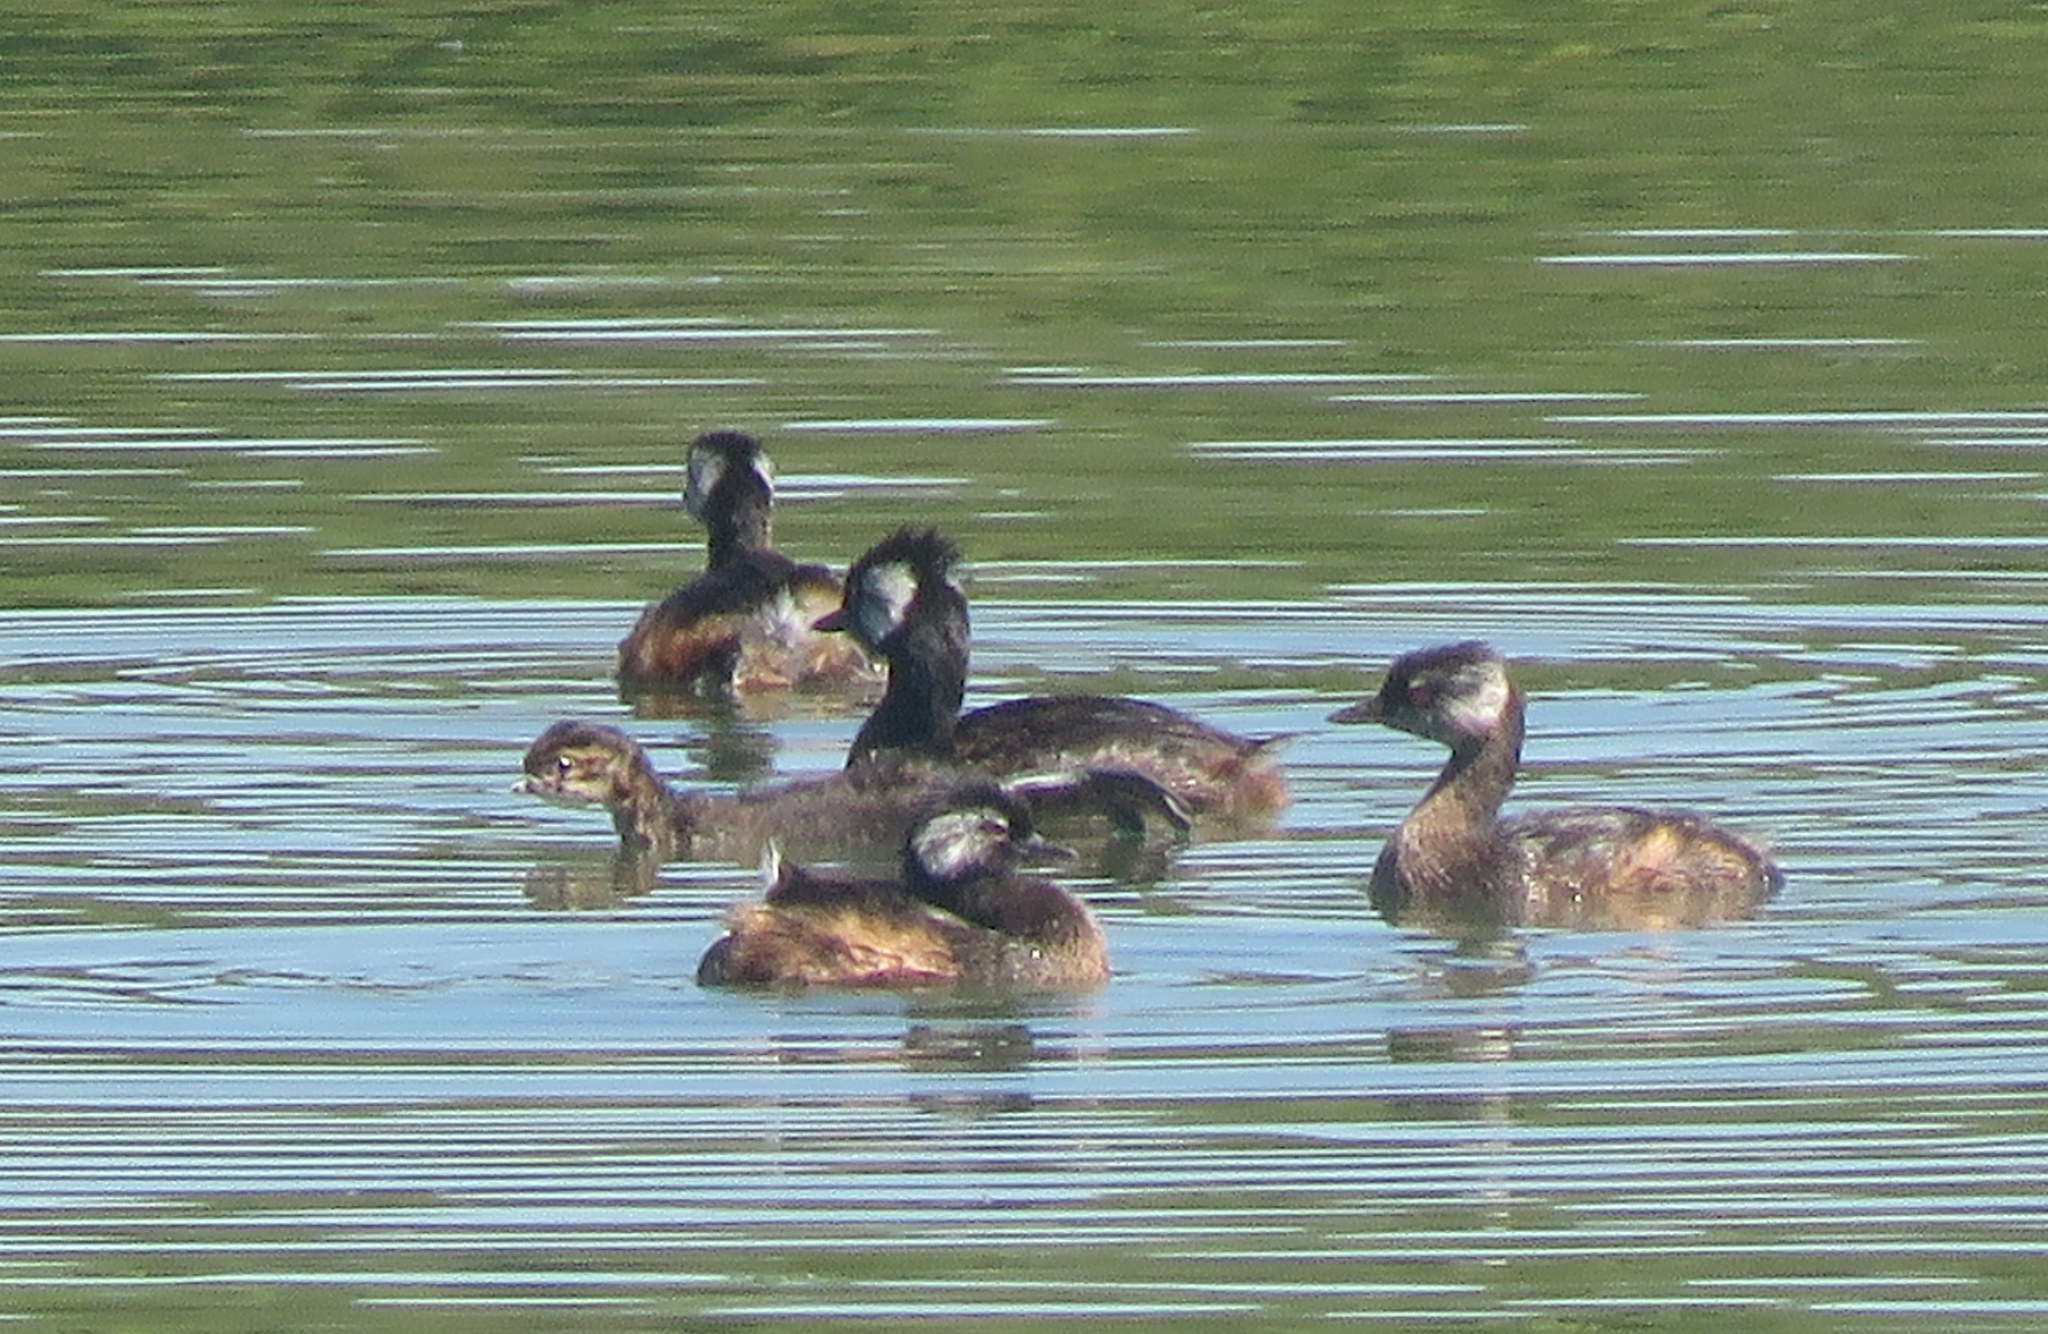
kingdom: Animalia
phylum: Chordata
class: Aves
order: Podicipediformes
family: Podicipedidae
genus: Rollandia
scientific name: Rollandia rolland
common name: White-tufted grebe
